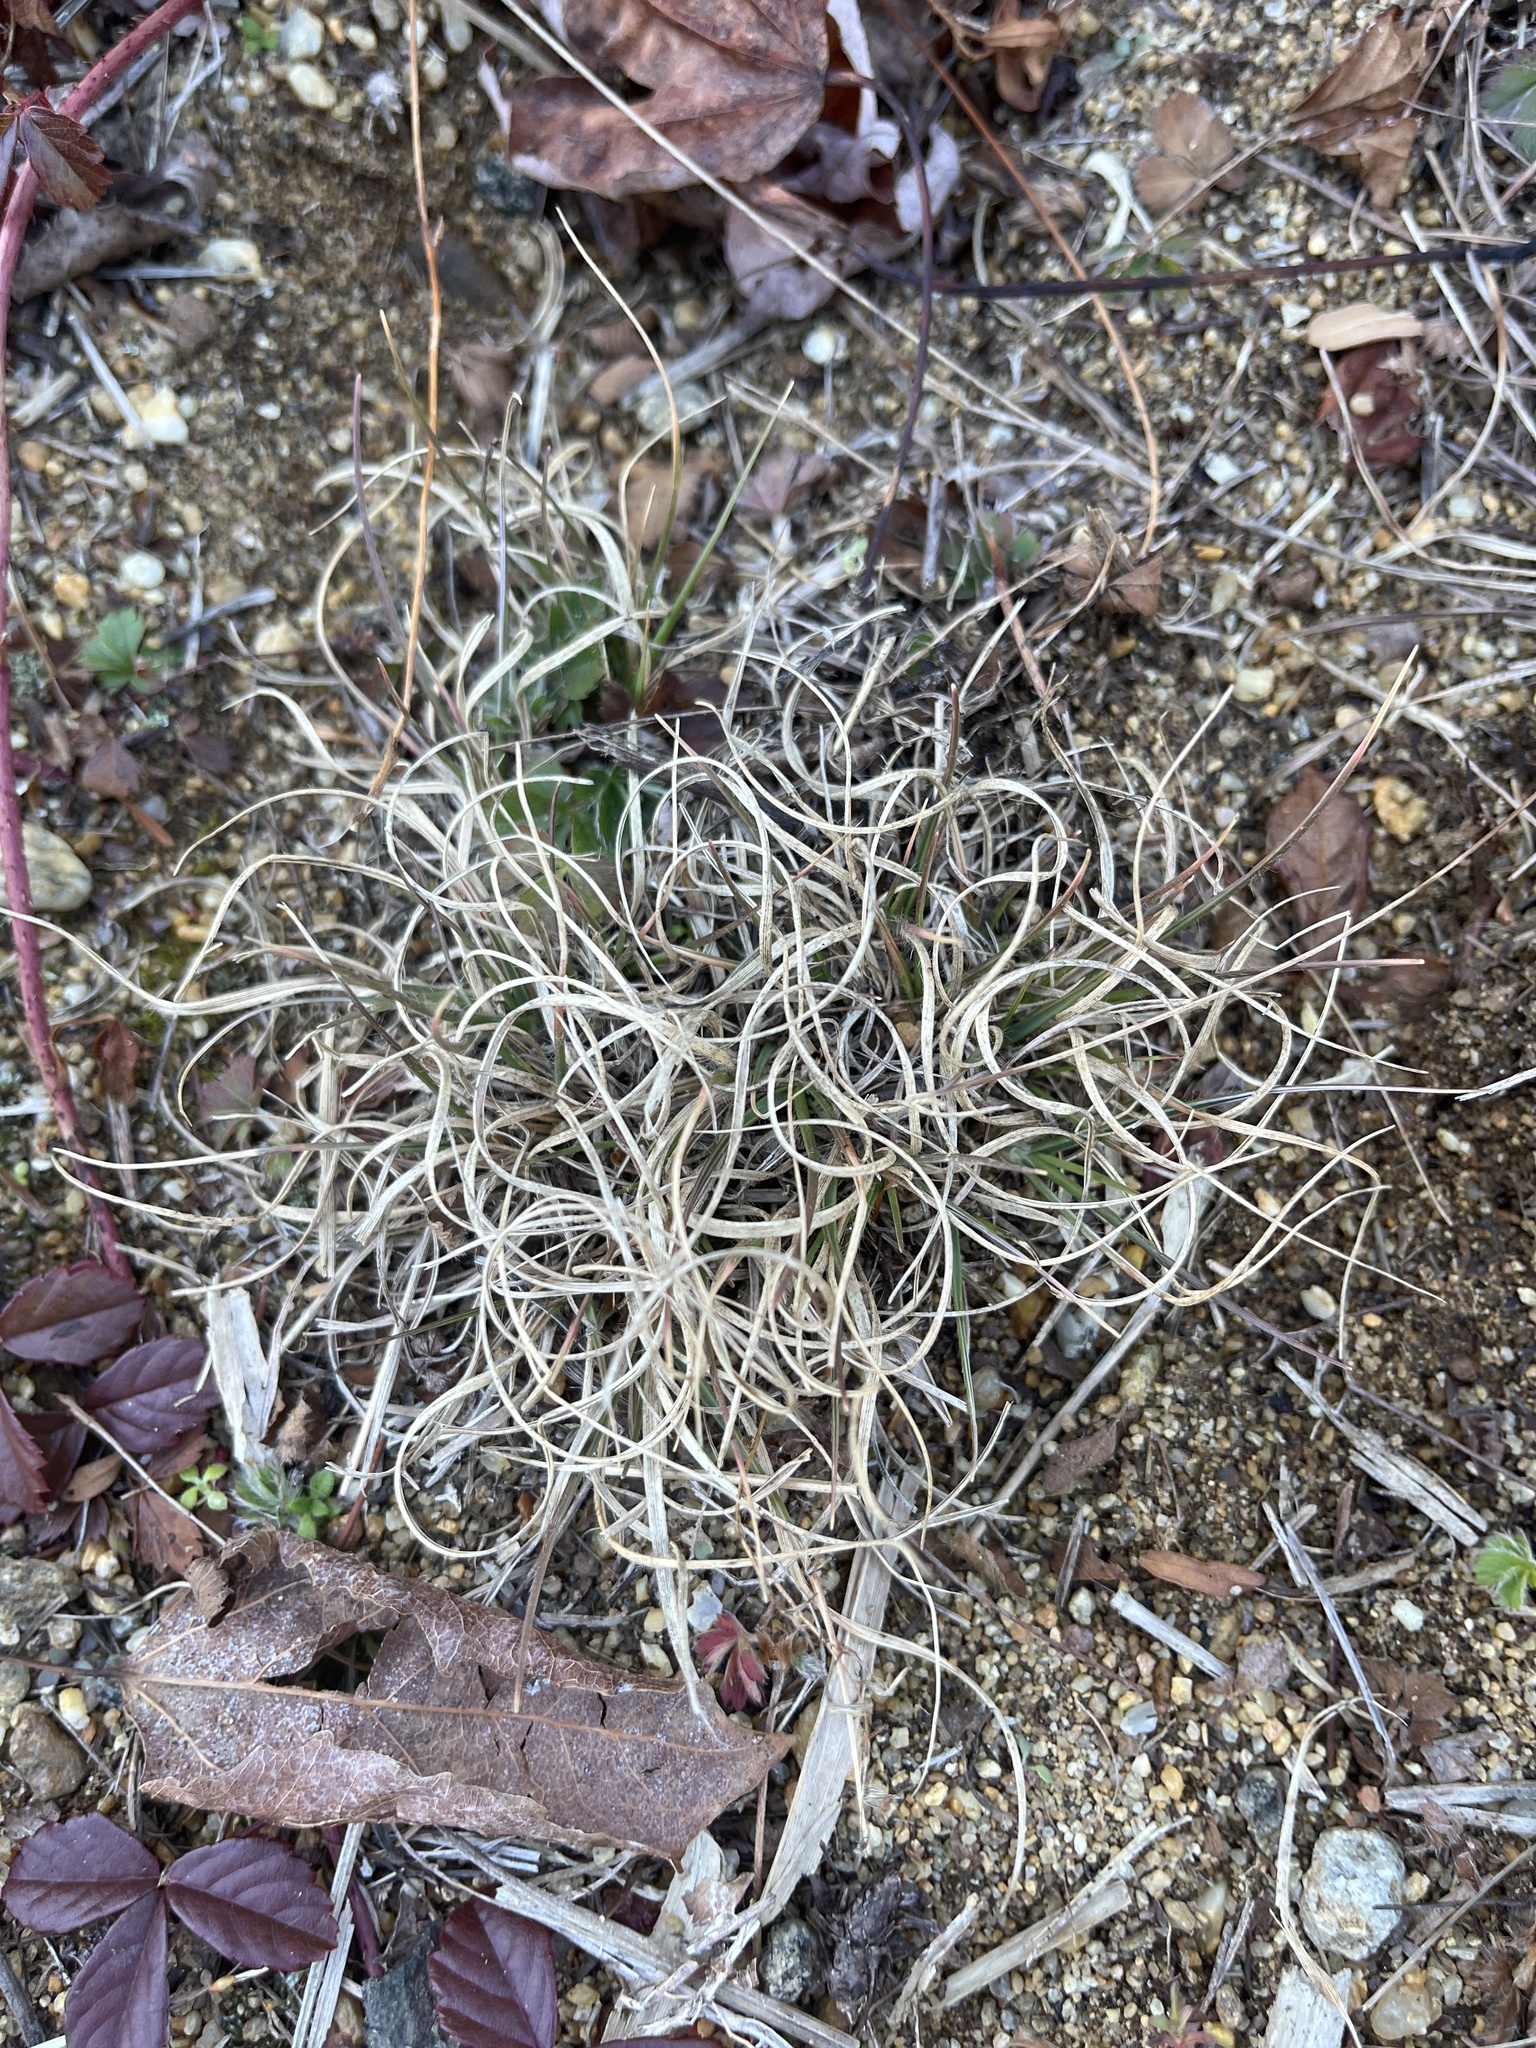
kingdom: Plantae
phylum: Tracheophyta
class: Liliopsida
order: Poales
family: Poaceae
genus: Danthonia
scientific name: Danthonia spicata
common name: Common wild oatgrass
